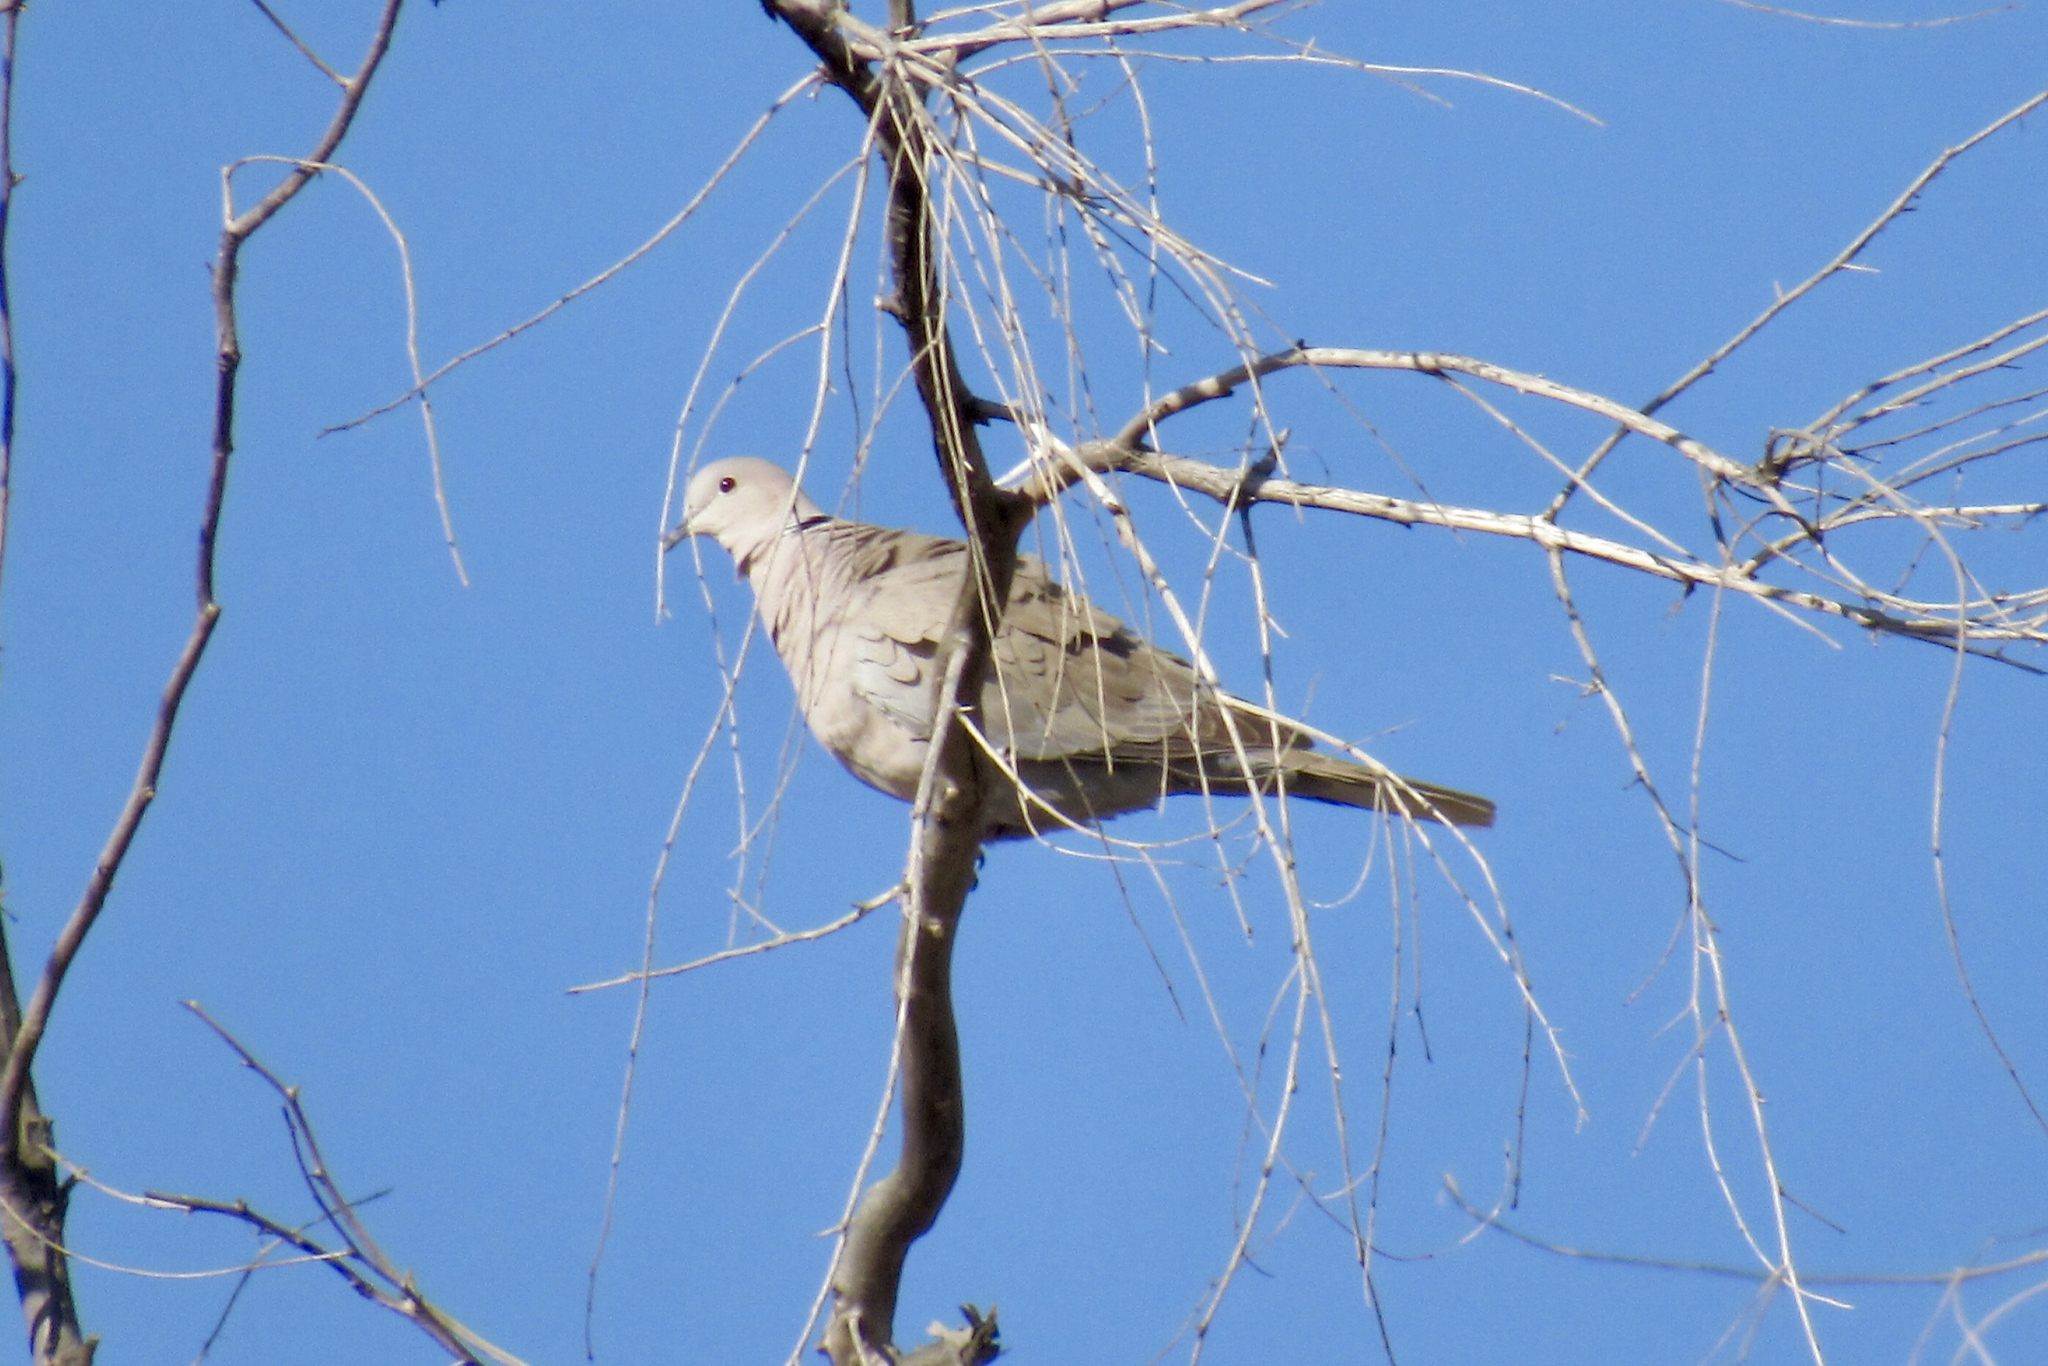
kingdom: Animalia
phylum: Chordata
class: Aves
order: Columbiformes
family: Columbidae
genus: Streptopelia
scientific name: Streptopelia decaocto
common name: Eurasian collared dove
